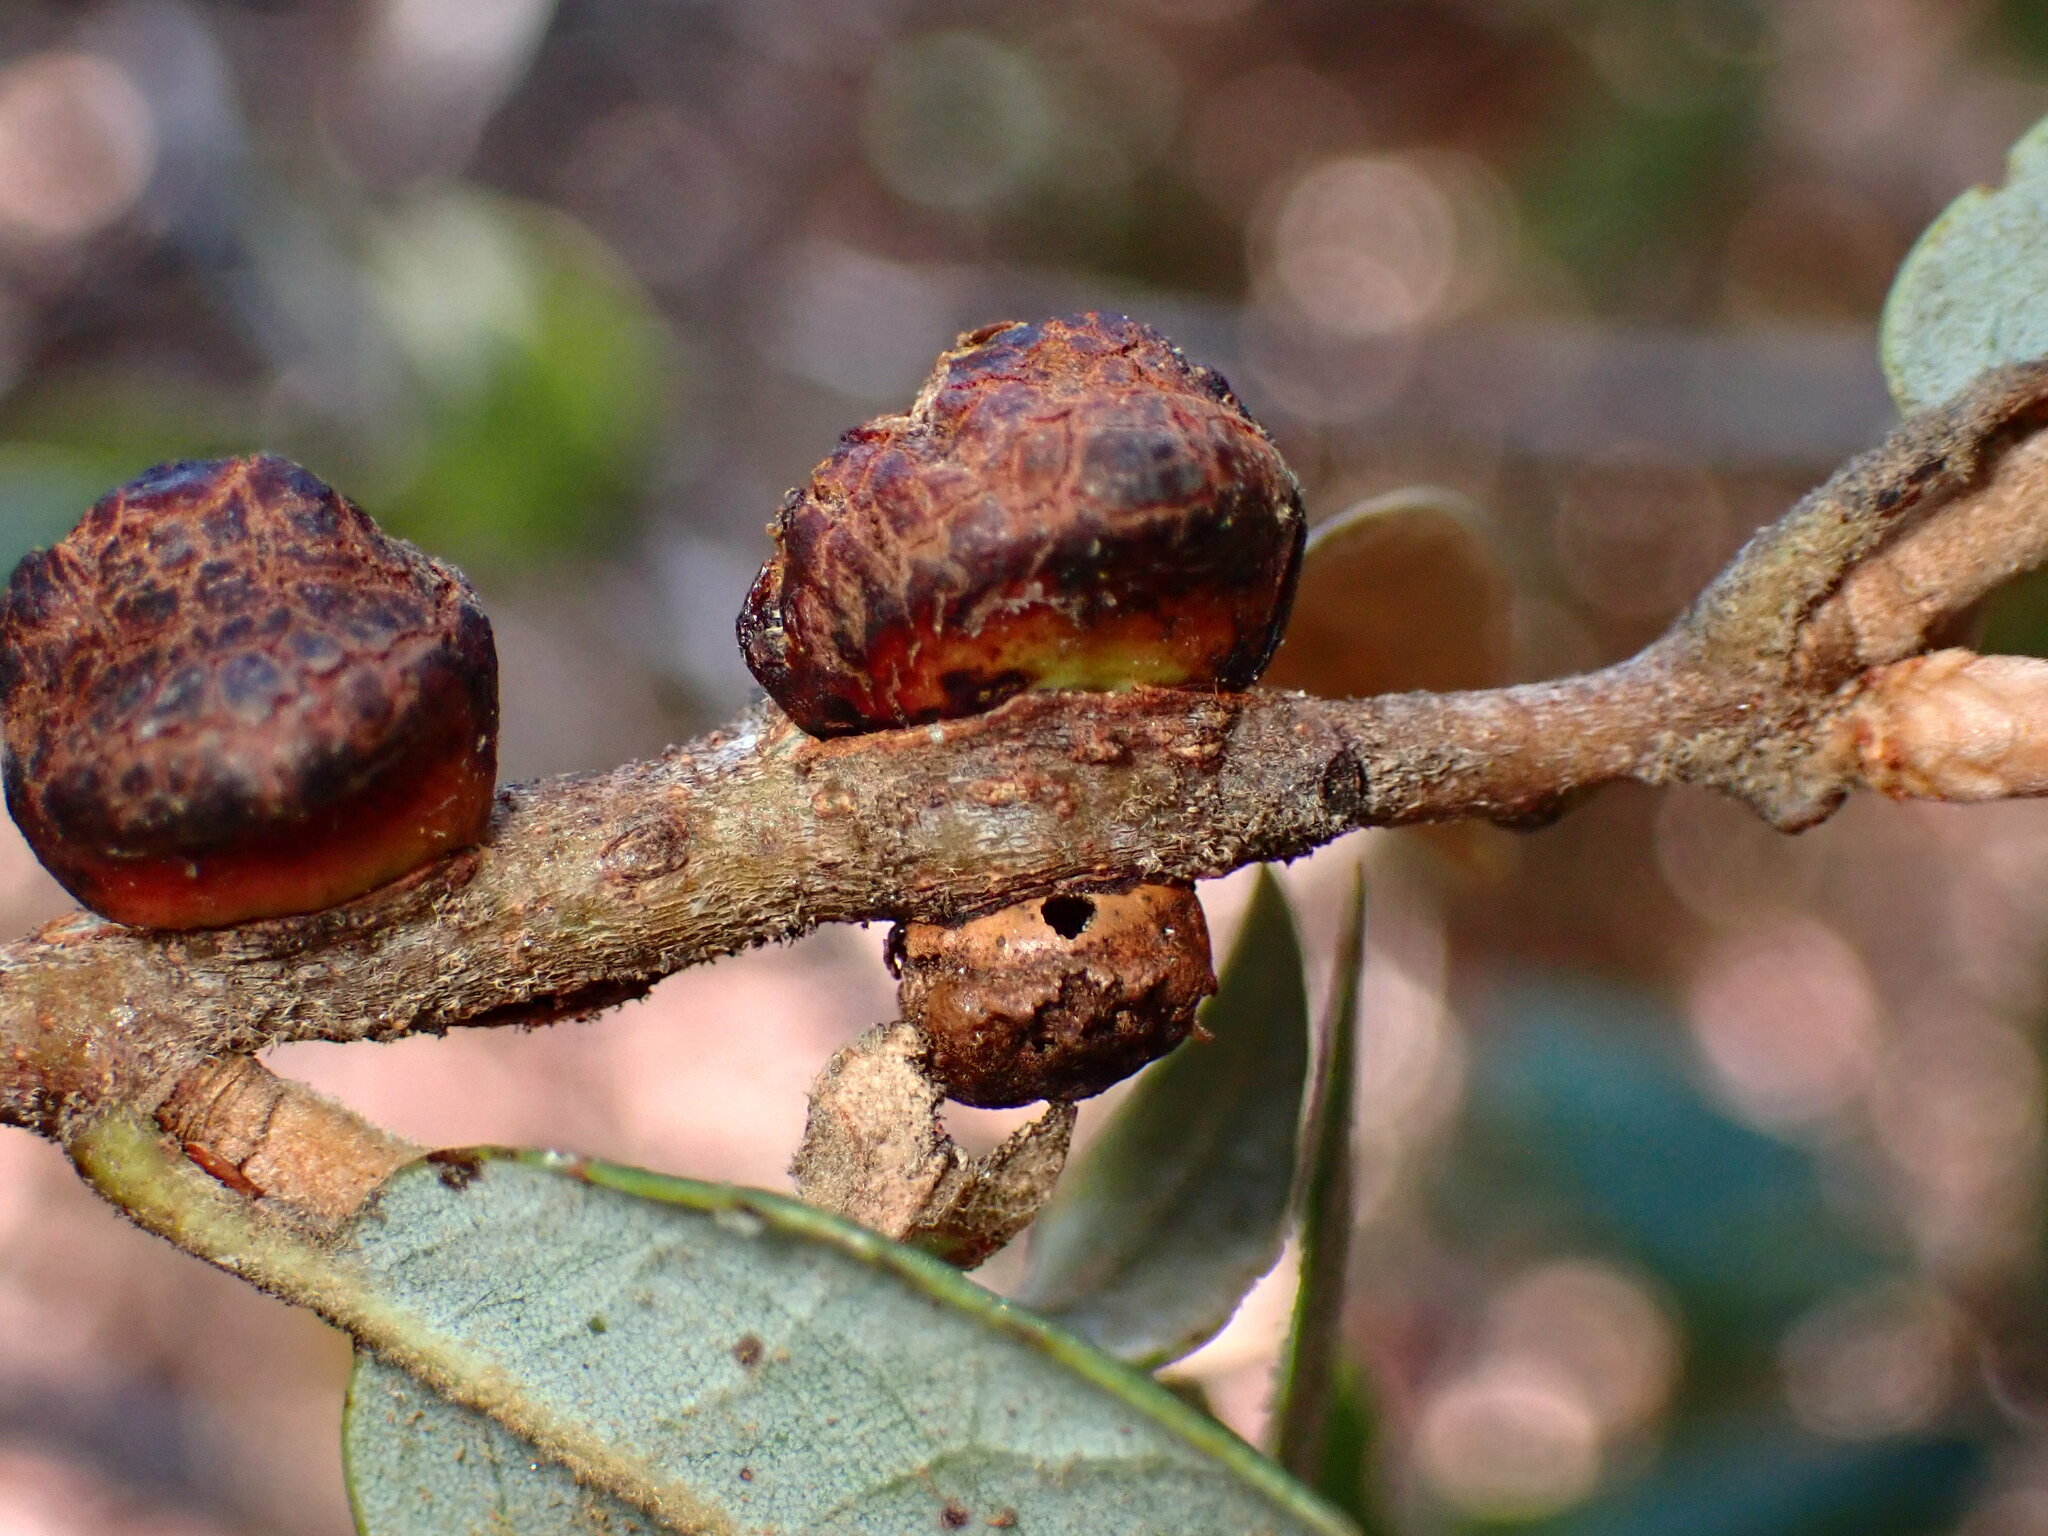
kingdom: Animalia
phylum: Arthropoda
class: Insecta
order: Hymenoptera
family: Cynipidae
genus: Disholandricus
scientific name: Disholandricus
